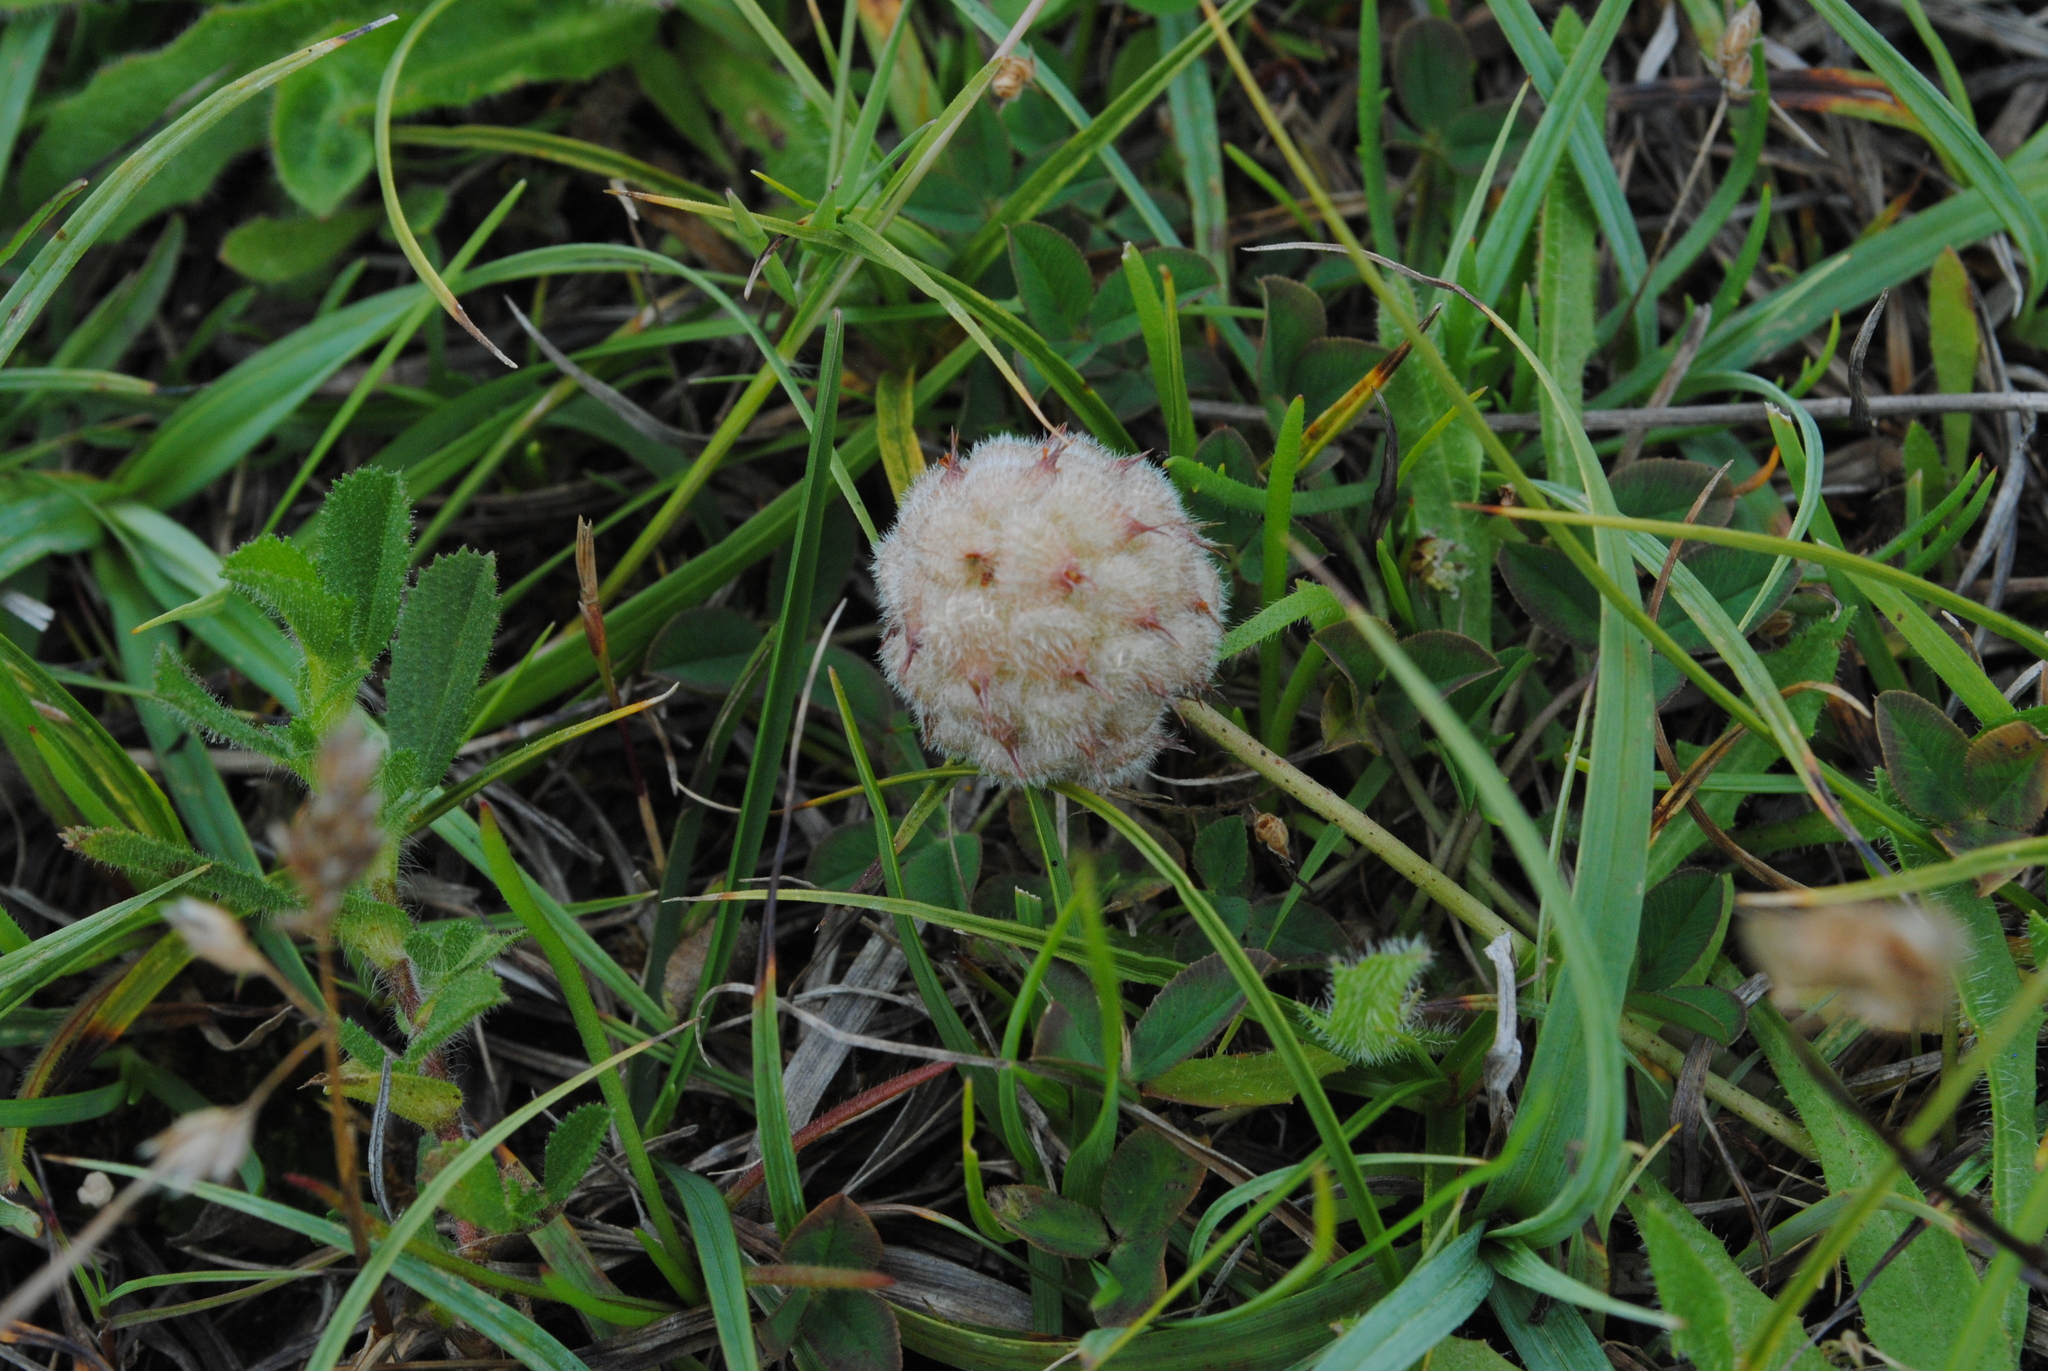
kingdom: Plantae
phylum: Tracheophyta
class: Magnoliopsida
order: Fabales
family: Fabaceae
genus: Trifolium
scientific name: Trifolium fragiferum
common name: Strawberry clover
